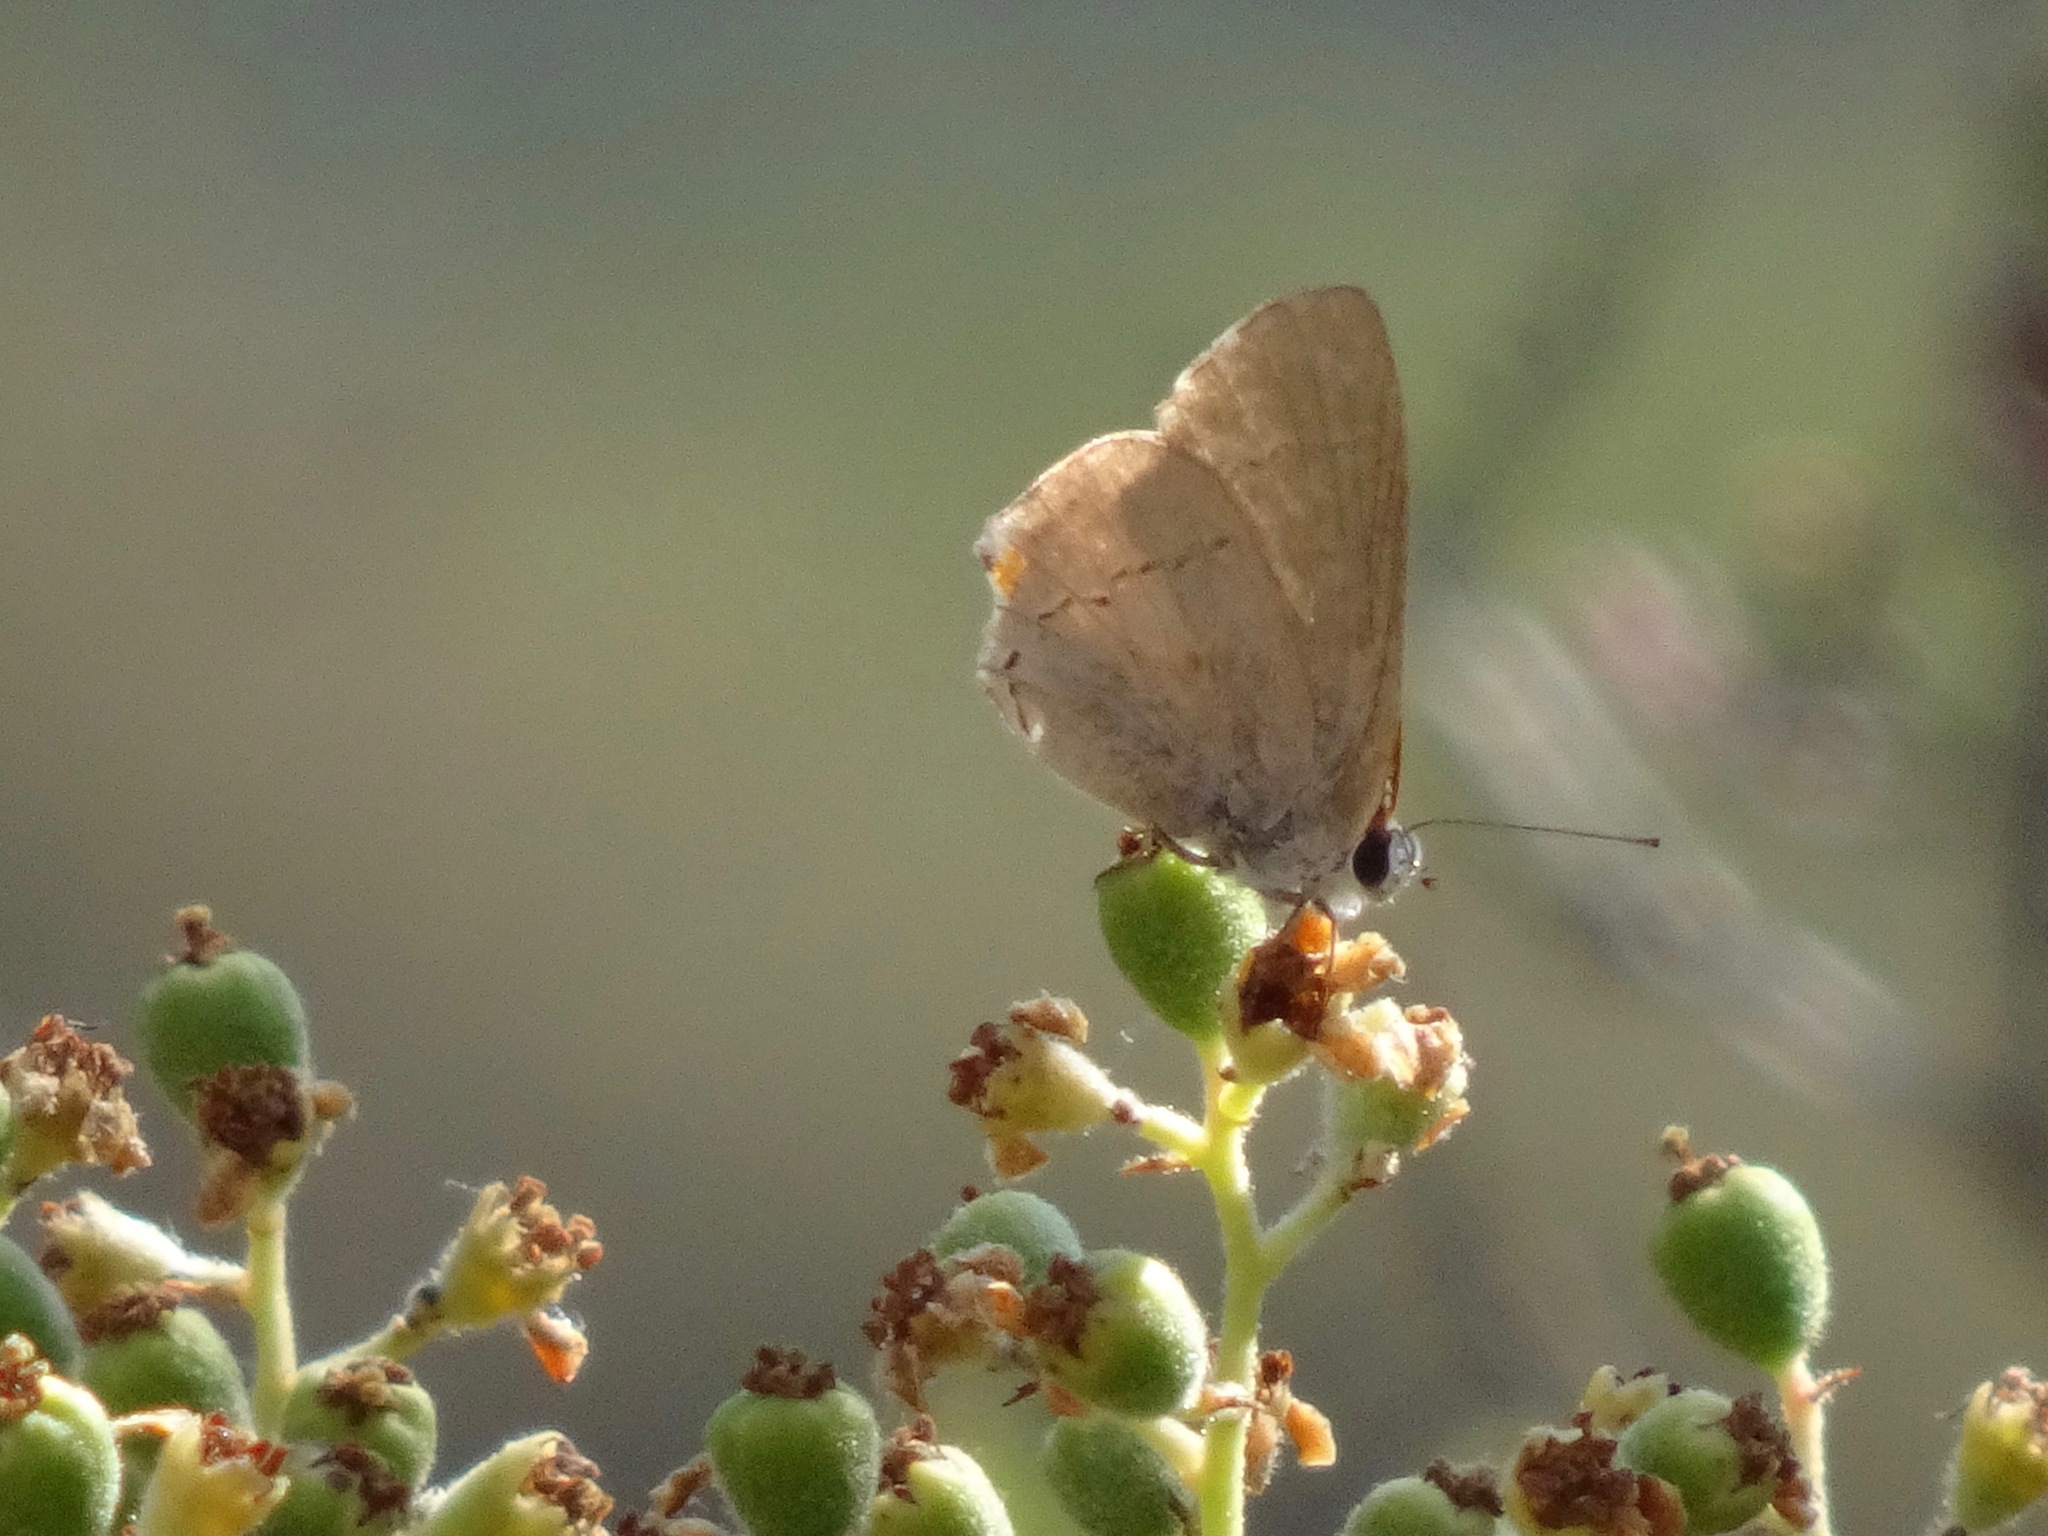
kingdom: Animalia
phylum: Arthropoda
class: Insecta
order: Lepidoptera
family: Lycaenidae
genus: Strymon
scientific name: Strymon melinus
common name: Gray hairstreak
